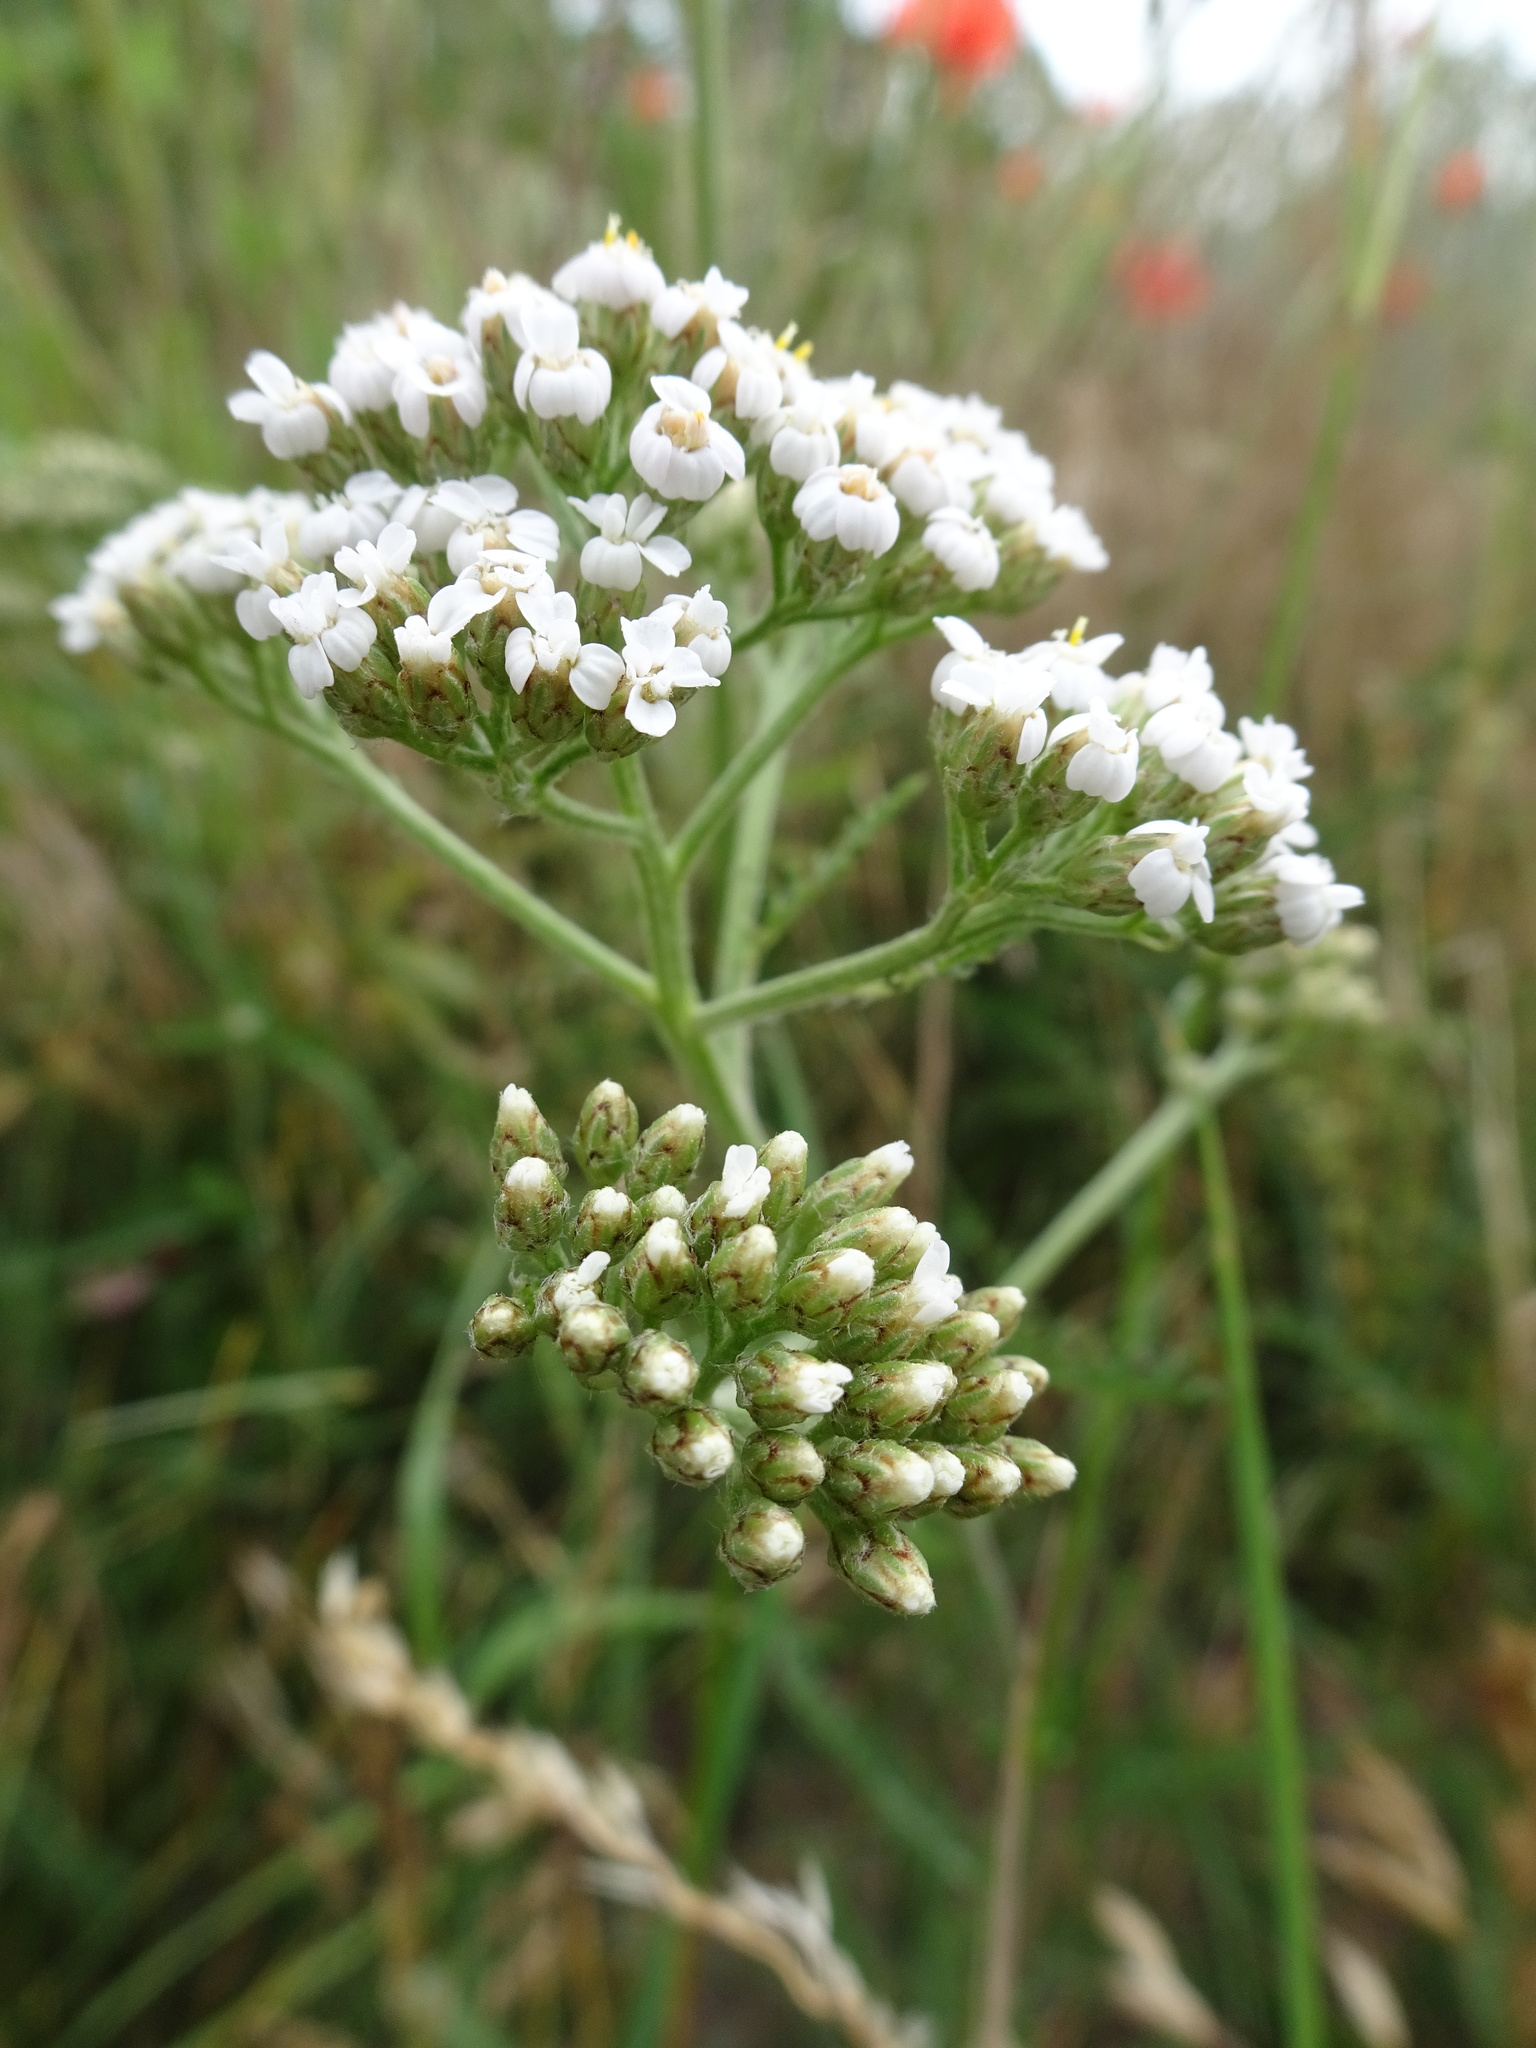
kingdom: Plantae
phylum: Tracheophyta
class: Magnoliopsida
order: Asterales
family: Asteraceae
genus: Achillea
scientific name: Achillea millefolium
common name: Yarrow
